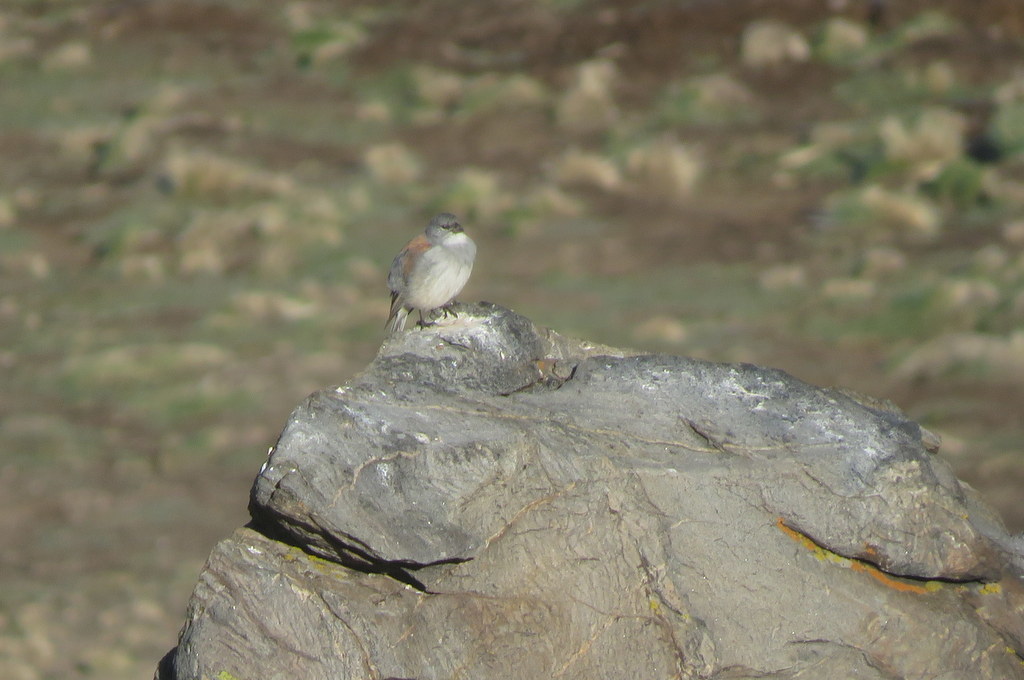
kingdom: Animalia
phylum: Chordata
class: Aves
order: Passeriformes
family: Thraupidae
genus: Idiopsar
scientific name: Idiopsar dorsalis
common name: Red-backed sierra finch
